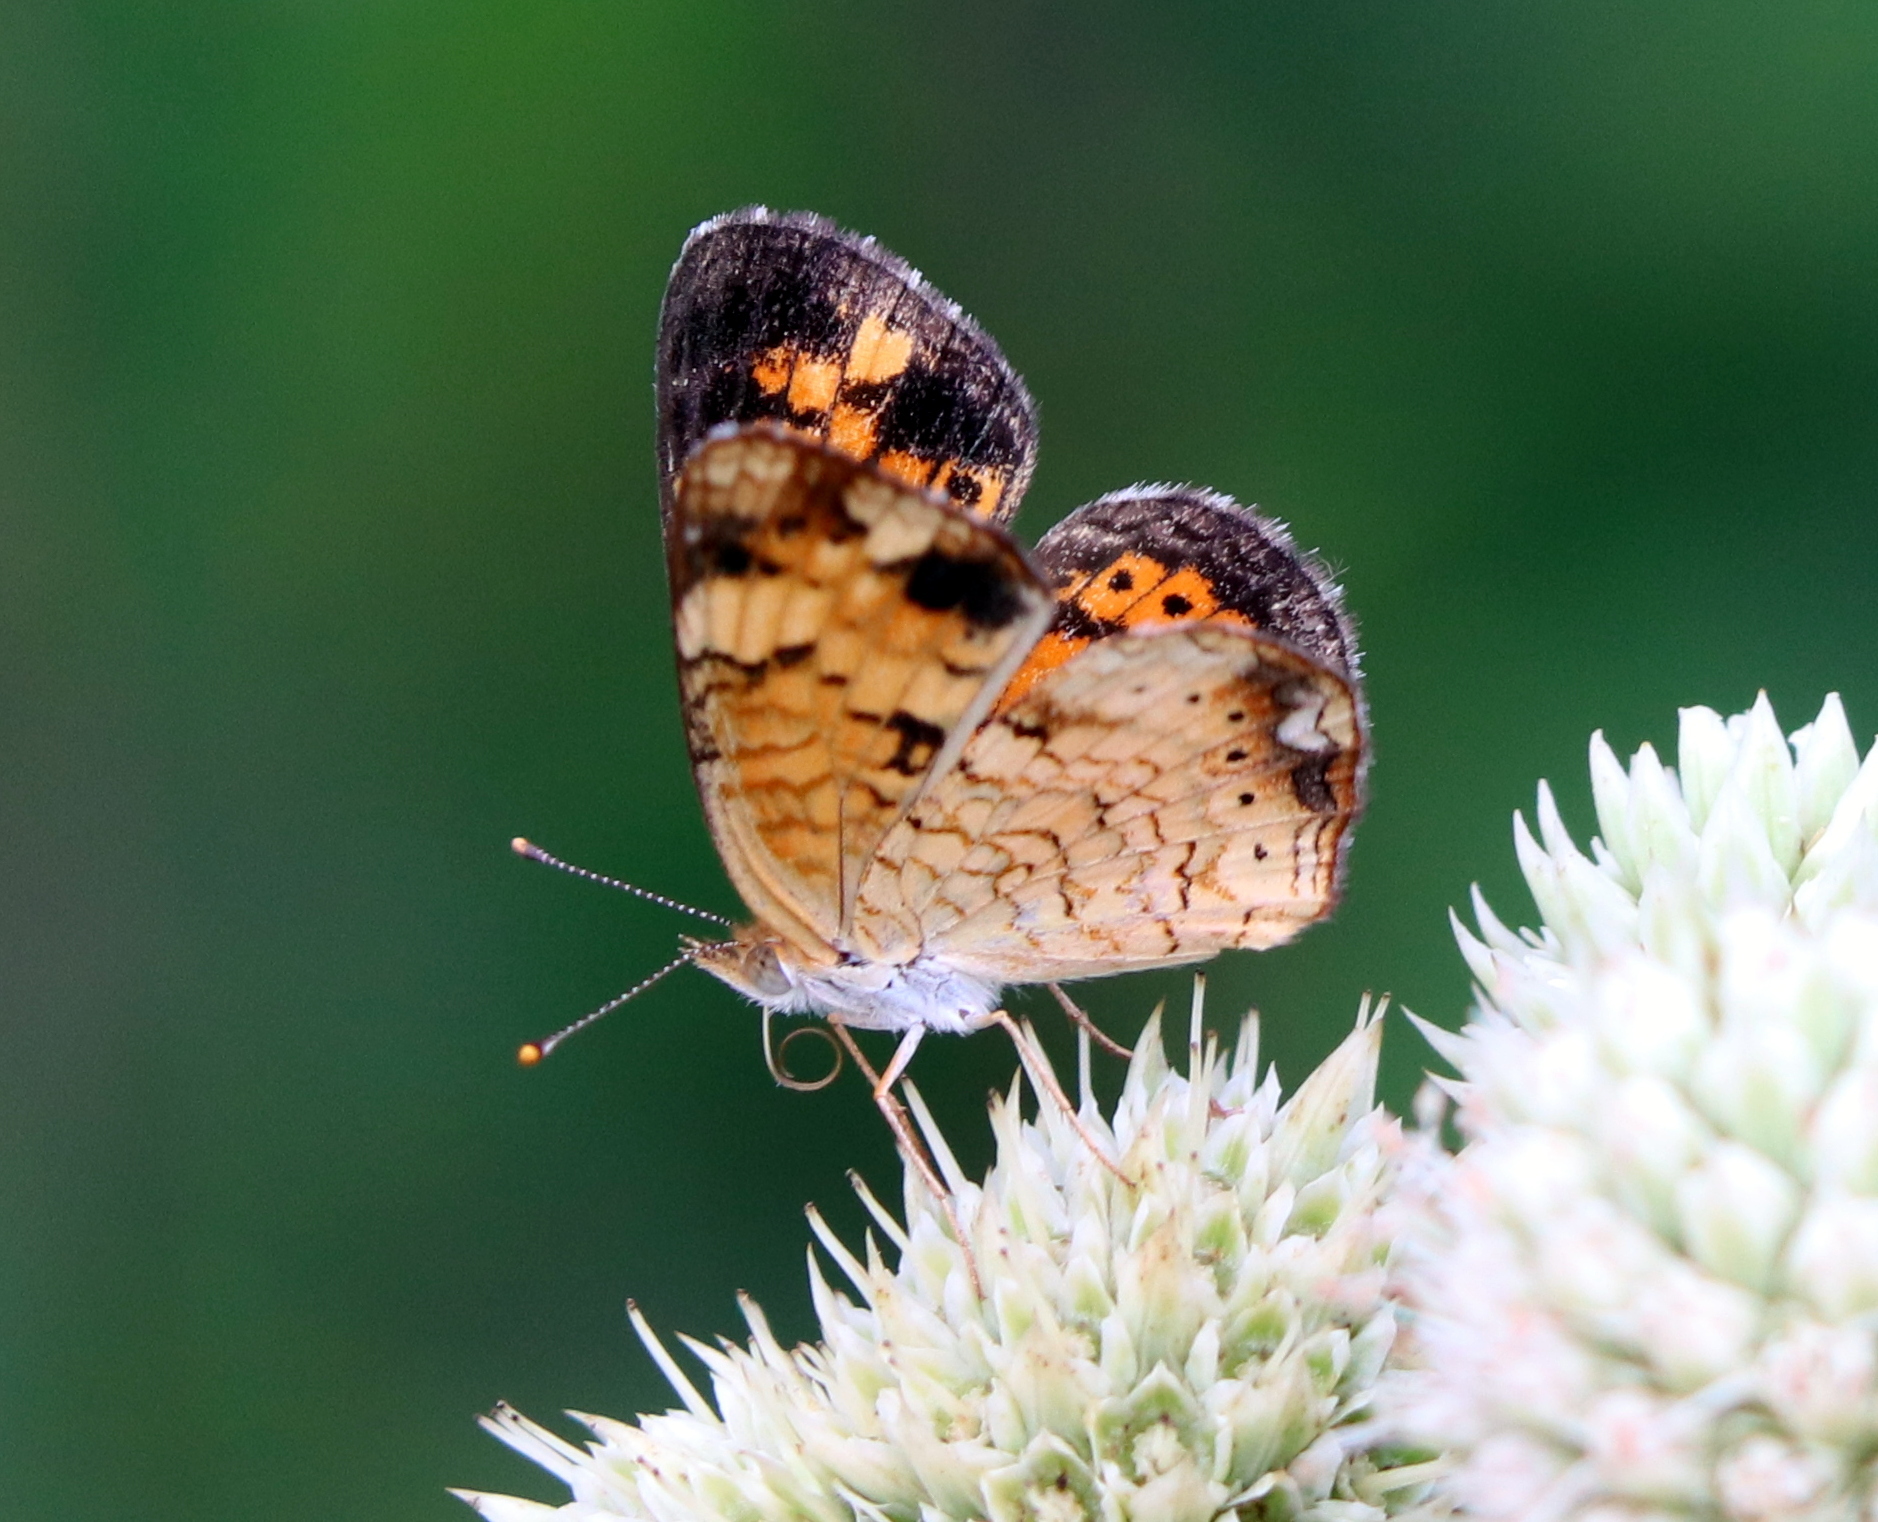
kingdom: Animalia
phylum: Arthropoda
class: Insecta
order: Lepidoptera
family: Nymphalidae
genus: Phyciodes
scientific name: Phyciodes tharos
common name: Pearl crescent
